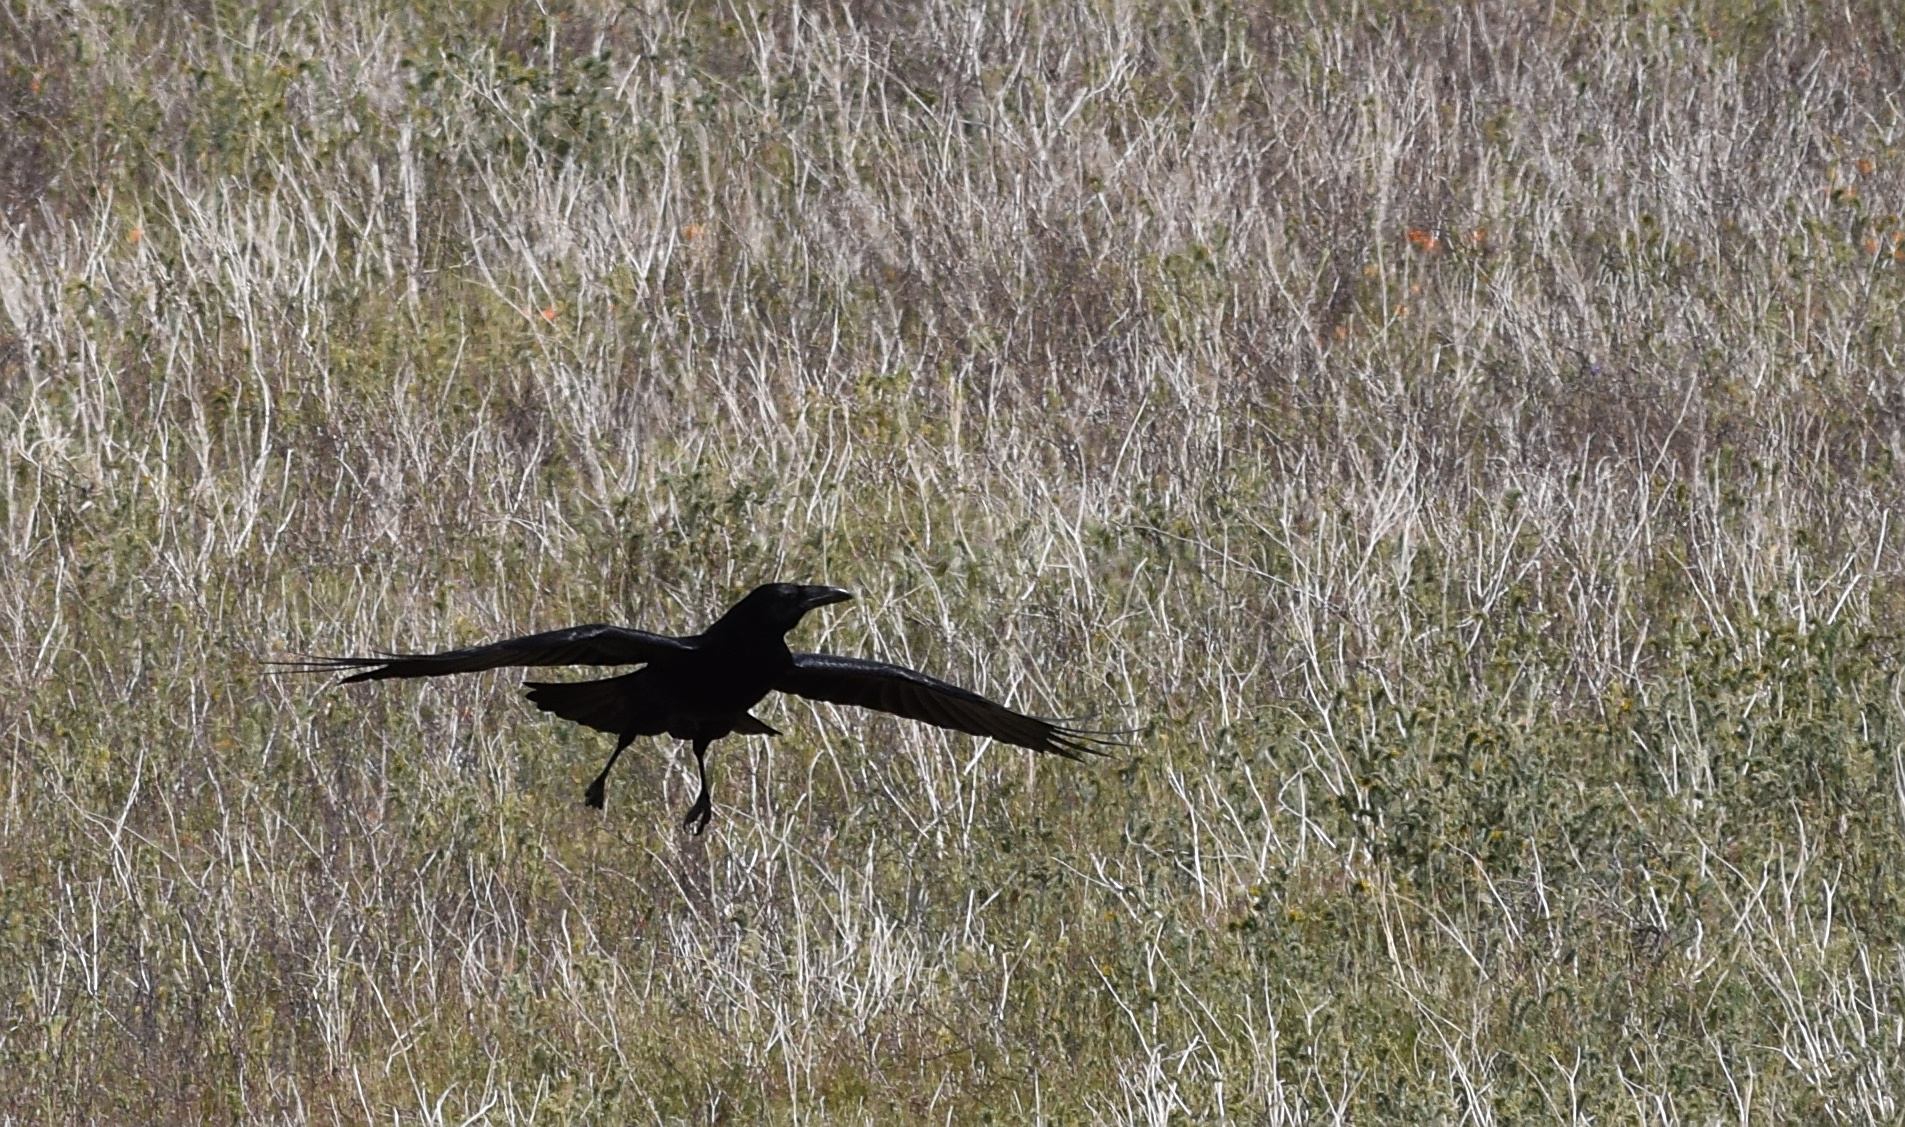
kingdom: Animalia
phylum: Chordata
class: Aves
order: Passeriformes
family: Corvidae
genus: Corvus
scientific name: Corvus corax
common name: Common raven
